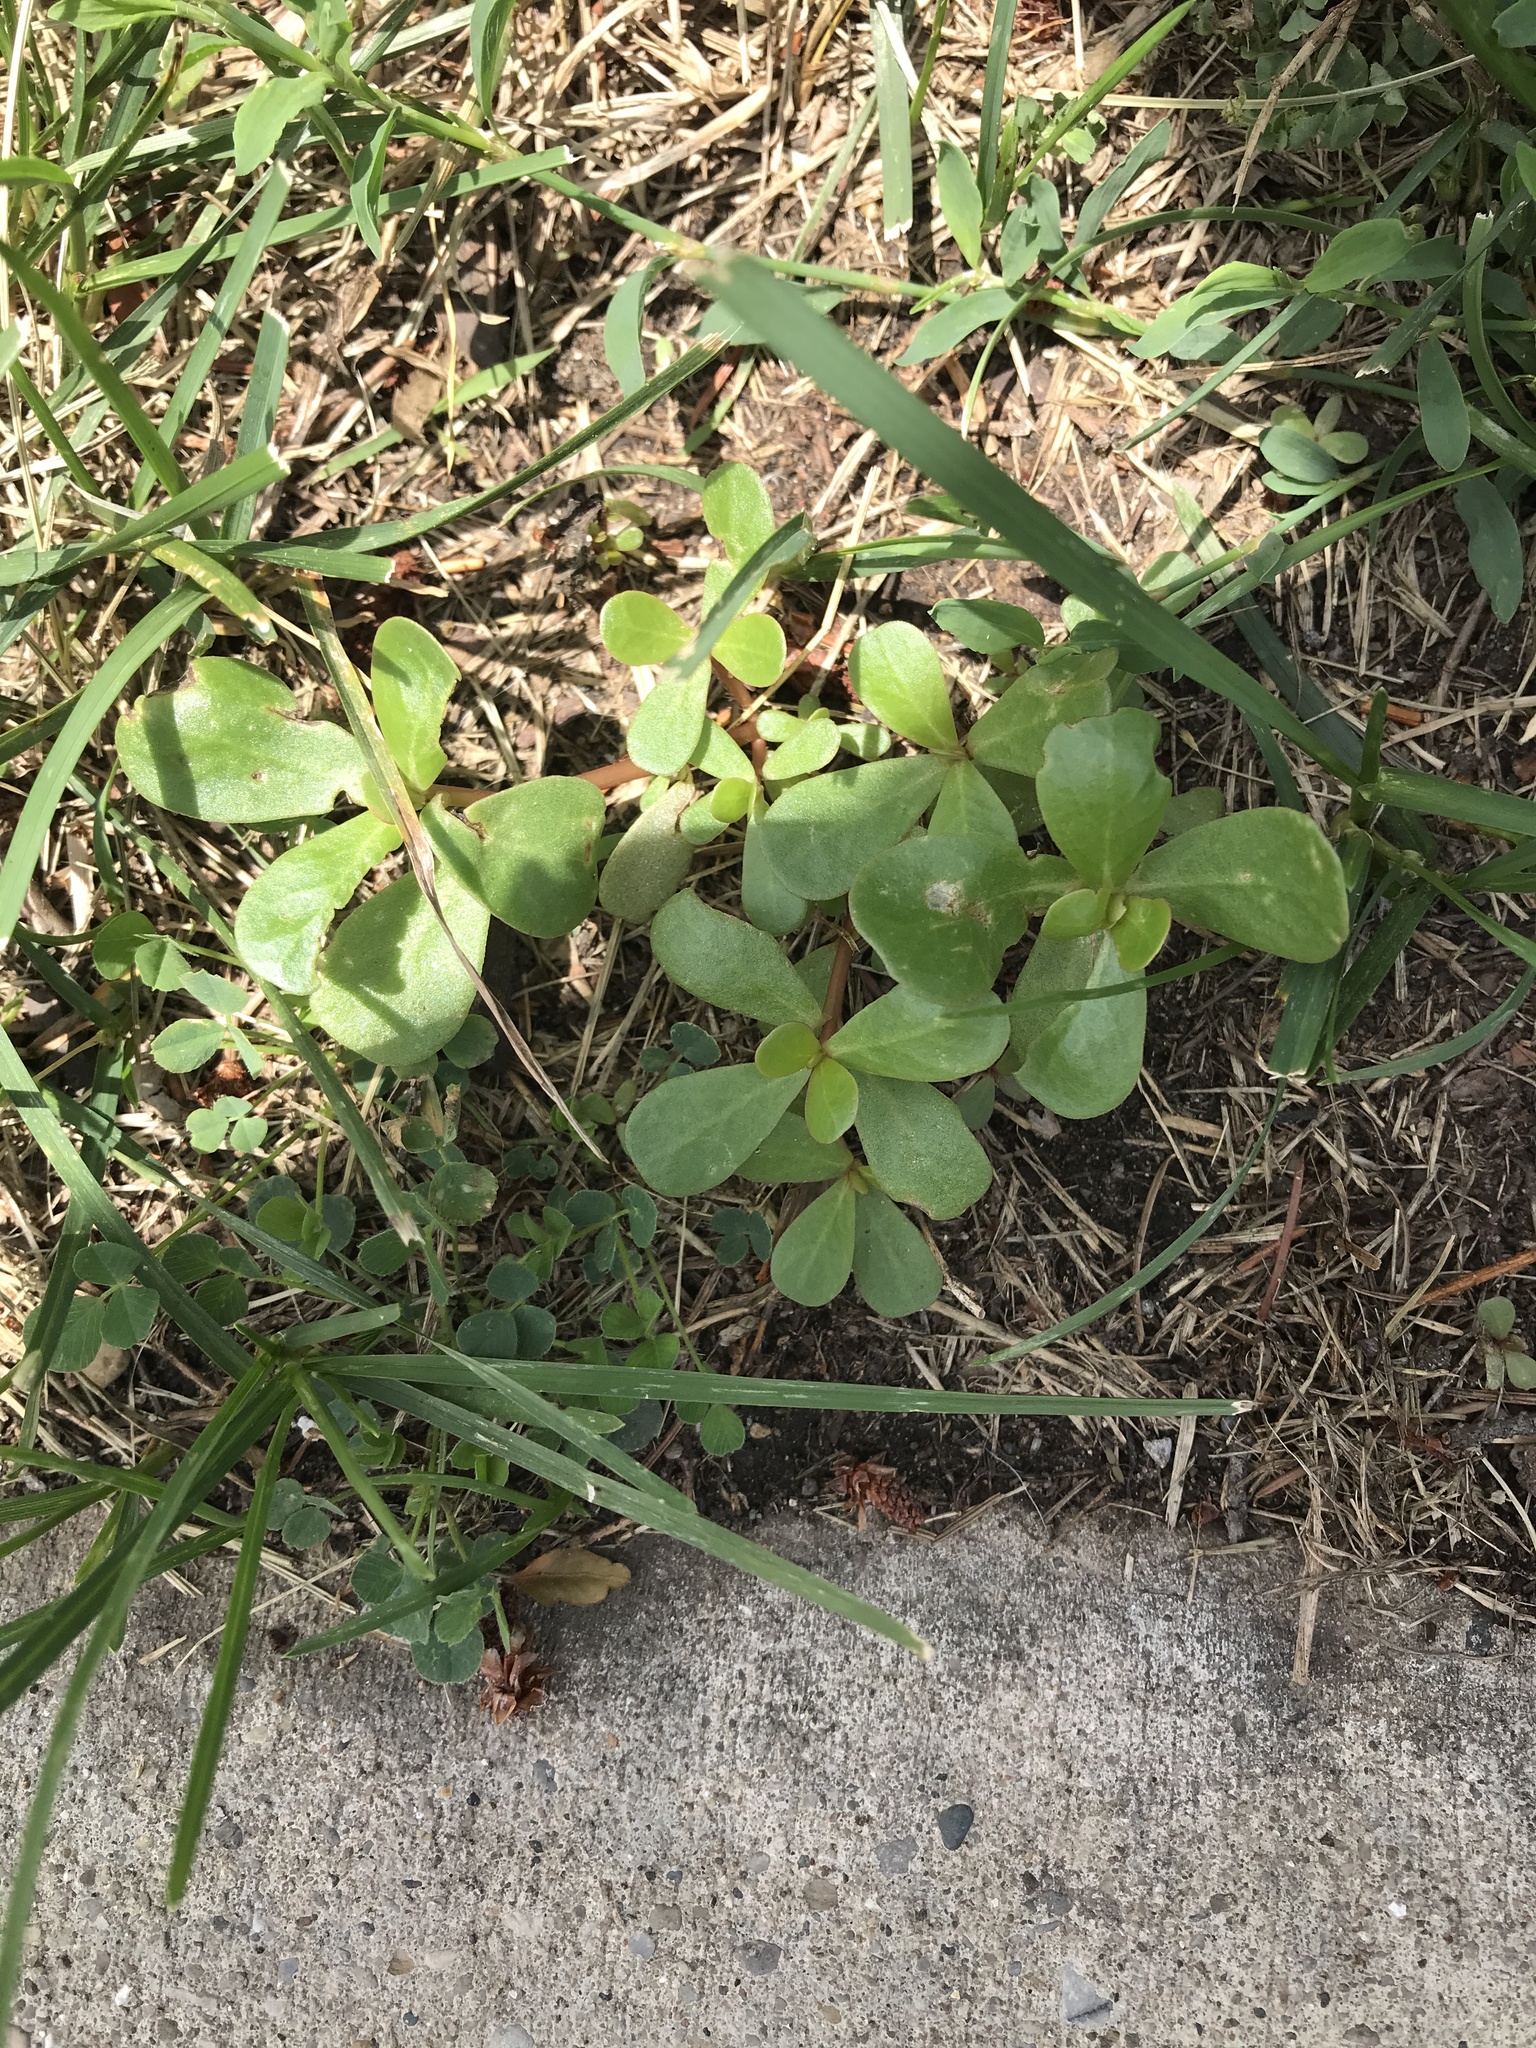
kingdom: Plantae
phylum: Tracheophyta
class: Magnoliopsida
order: Caryophyllales
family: Portulacaceae
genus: Portulaca
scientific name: Portulaca oleracea
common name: Common purslane
